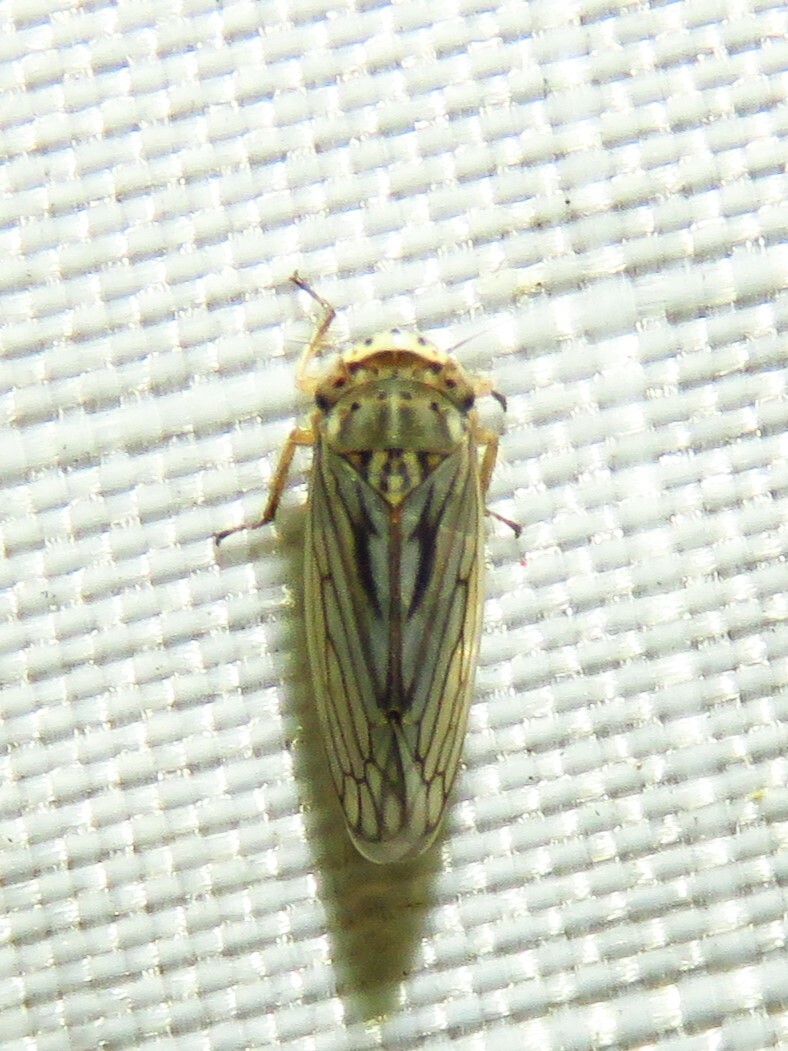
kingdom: Animalia
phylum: Arthropoda
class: Insecta
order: Hemiptera
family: Cicadellidae
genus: Exitianus
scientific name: Exitianus exitiosus
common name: Gray lawn leafhopper
